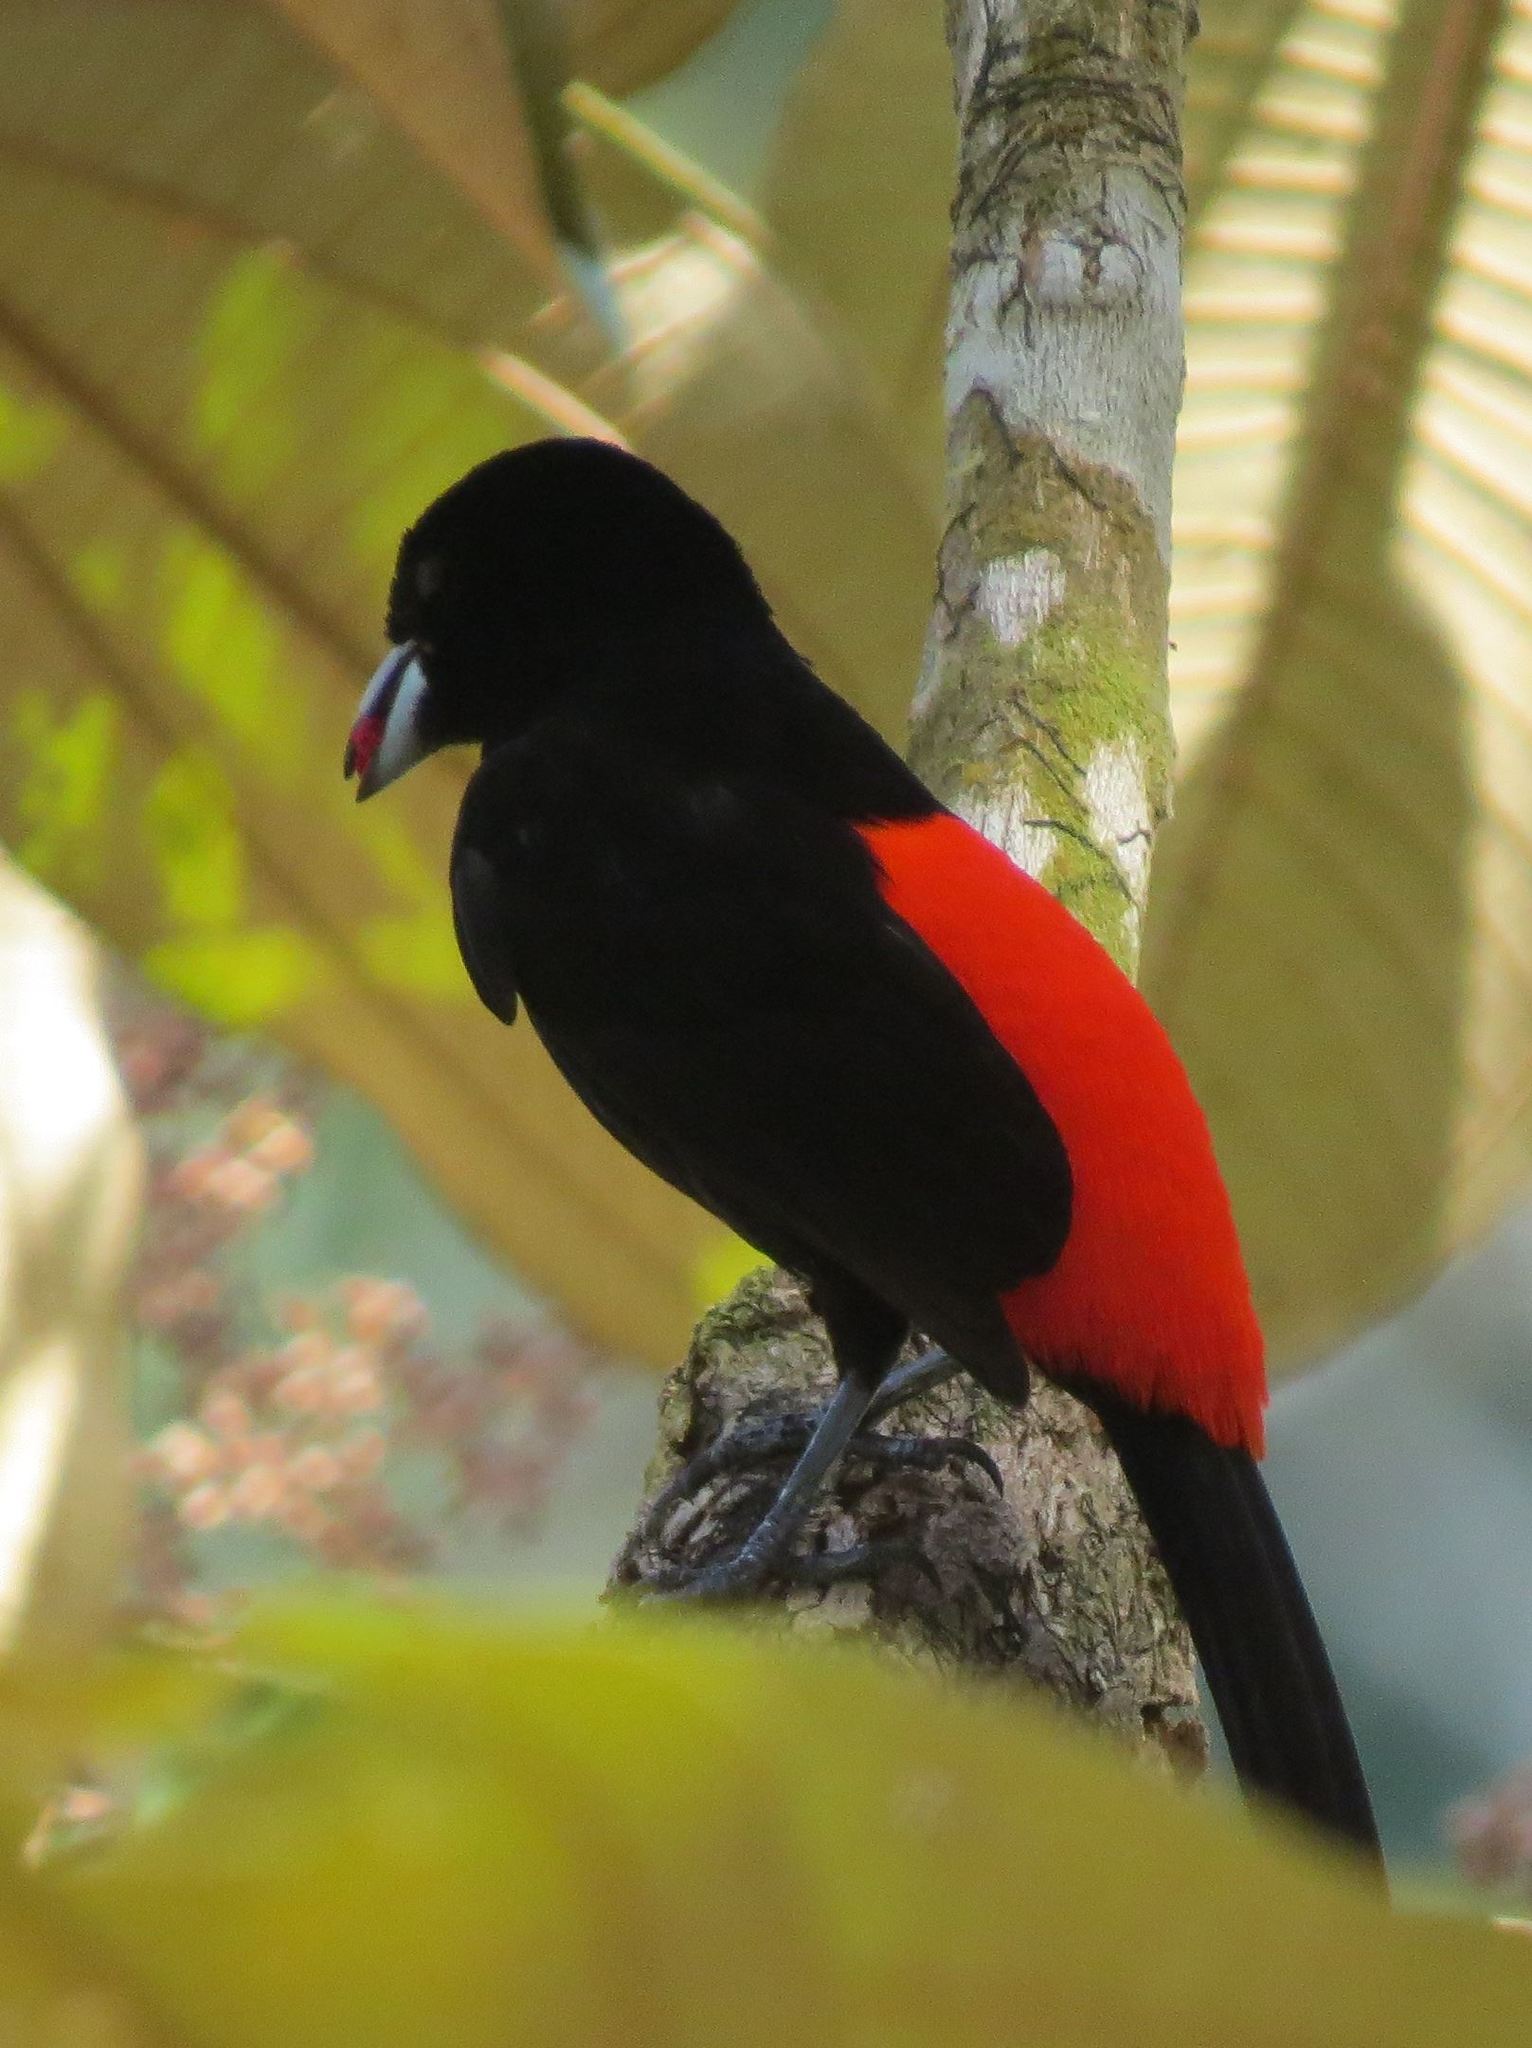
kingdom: Animalia
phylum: Chordata
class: Aves
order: Passeriformes
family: Thraupidae
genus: Ramphocelus
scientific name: Ramphocelus passerinii
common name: Passerini's tanager
